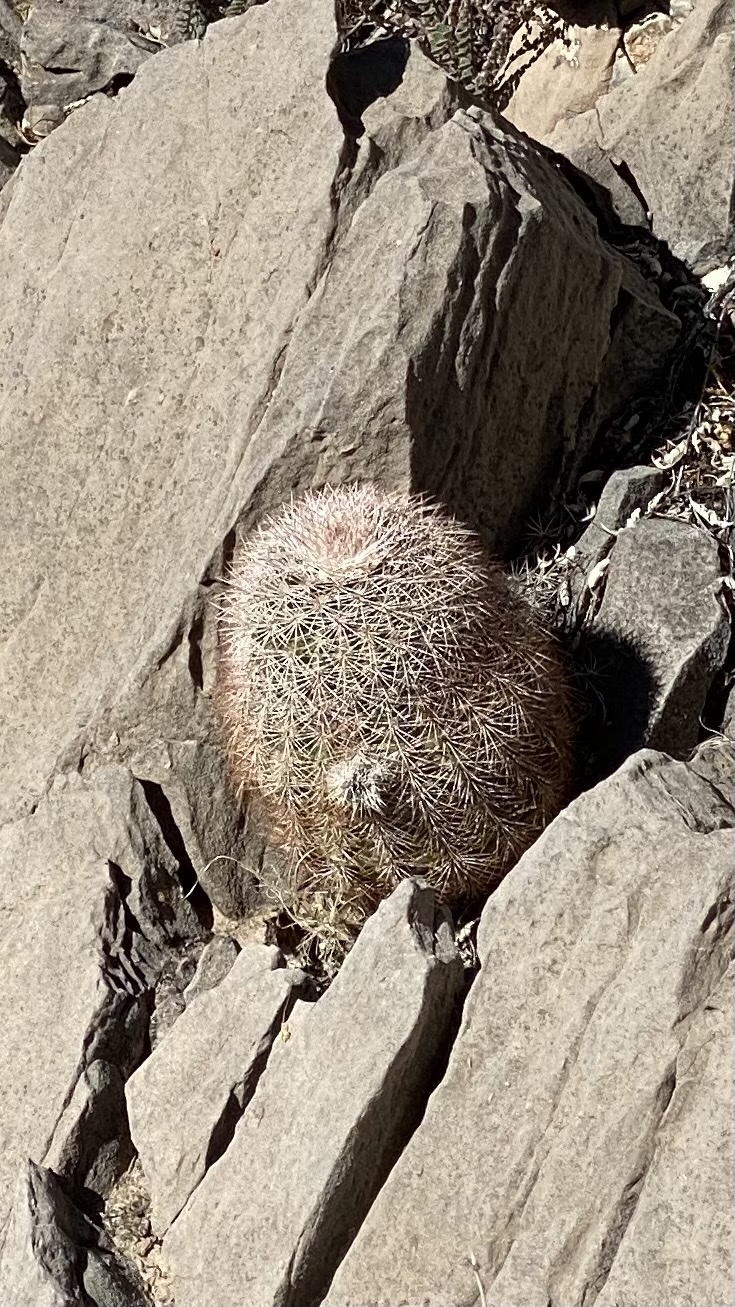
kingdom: Plantae
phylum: Tracheophyta
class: Magnoliopsida
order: Caryophyllales
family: Cactaceae
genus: Echinocereus
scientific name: Echinocereus dasyacanthus
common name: Spiny hedgehog cactus
